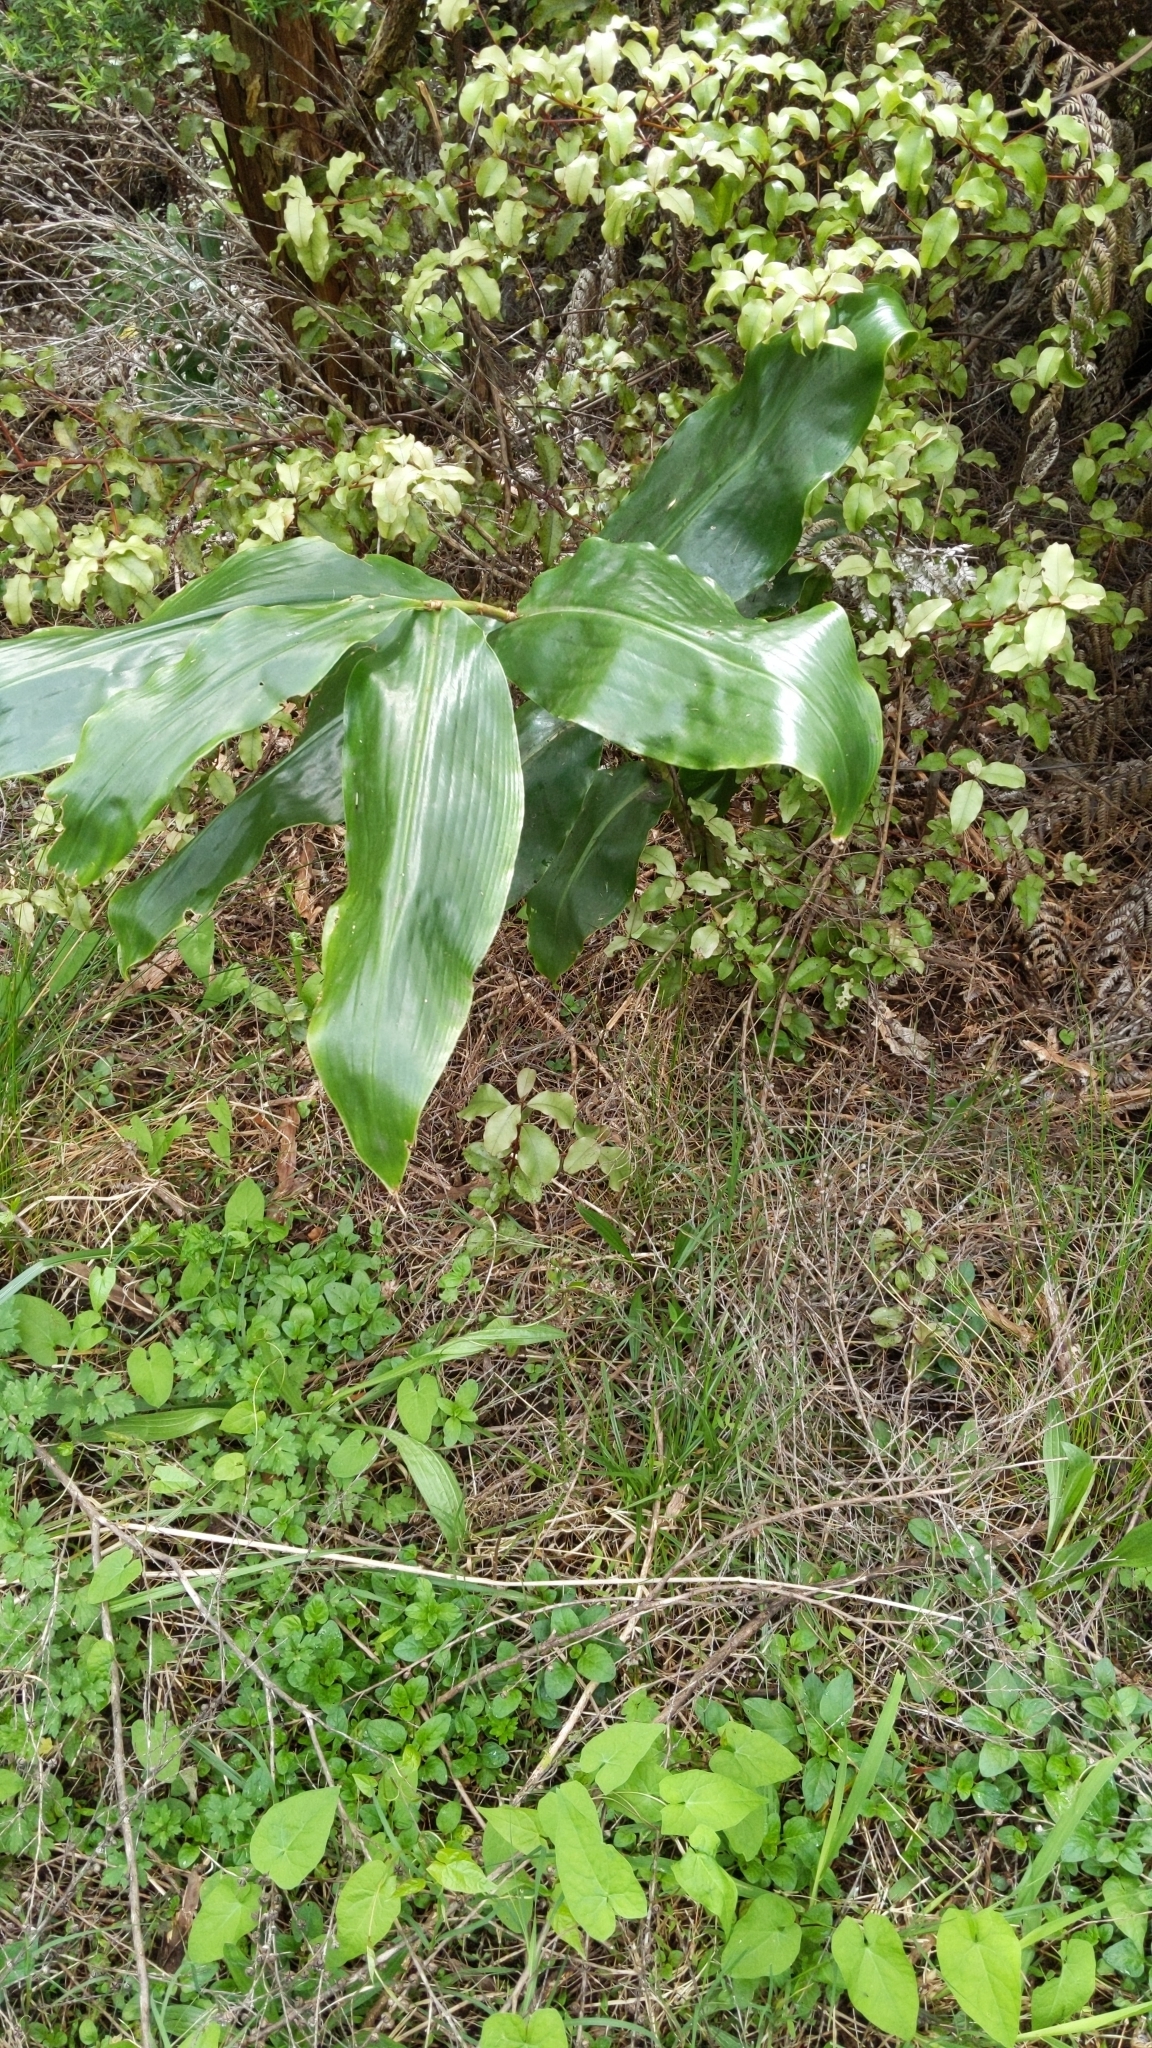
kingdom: Plantae
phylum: Tracheophyta
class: Liliopsida
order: Zingiberales
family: Zingiberaceae
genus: Hedychium
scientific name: Hedychium gardnerianum
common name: Himalayan ginger
